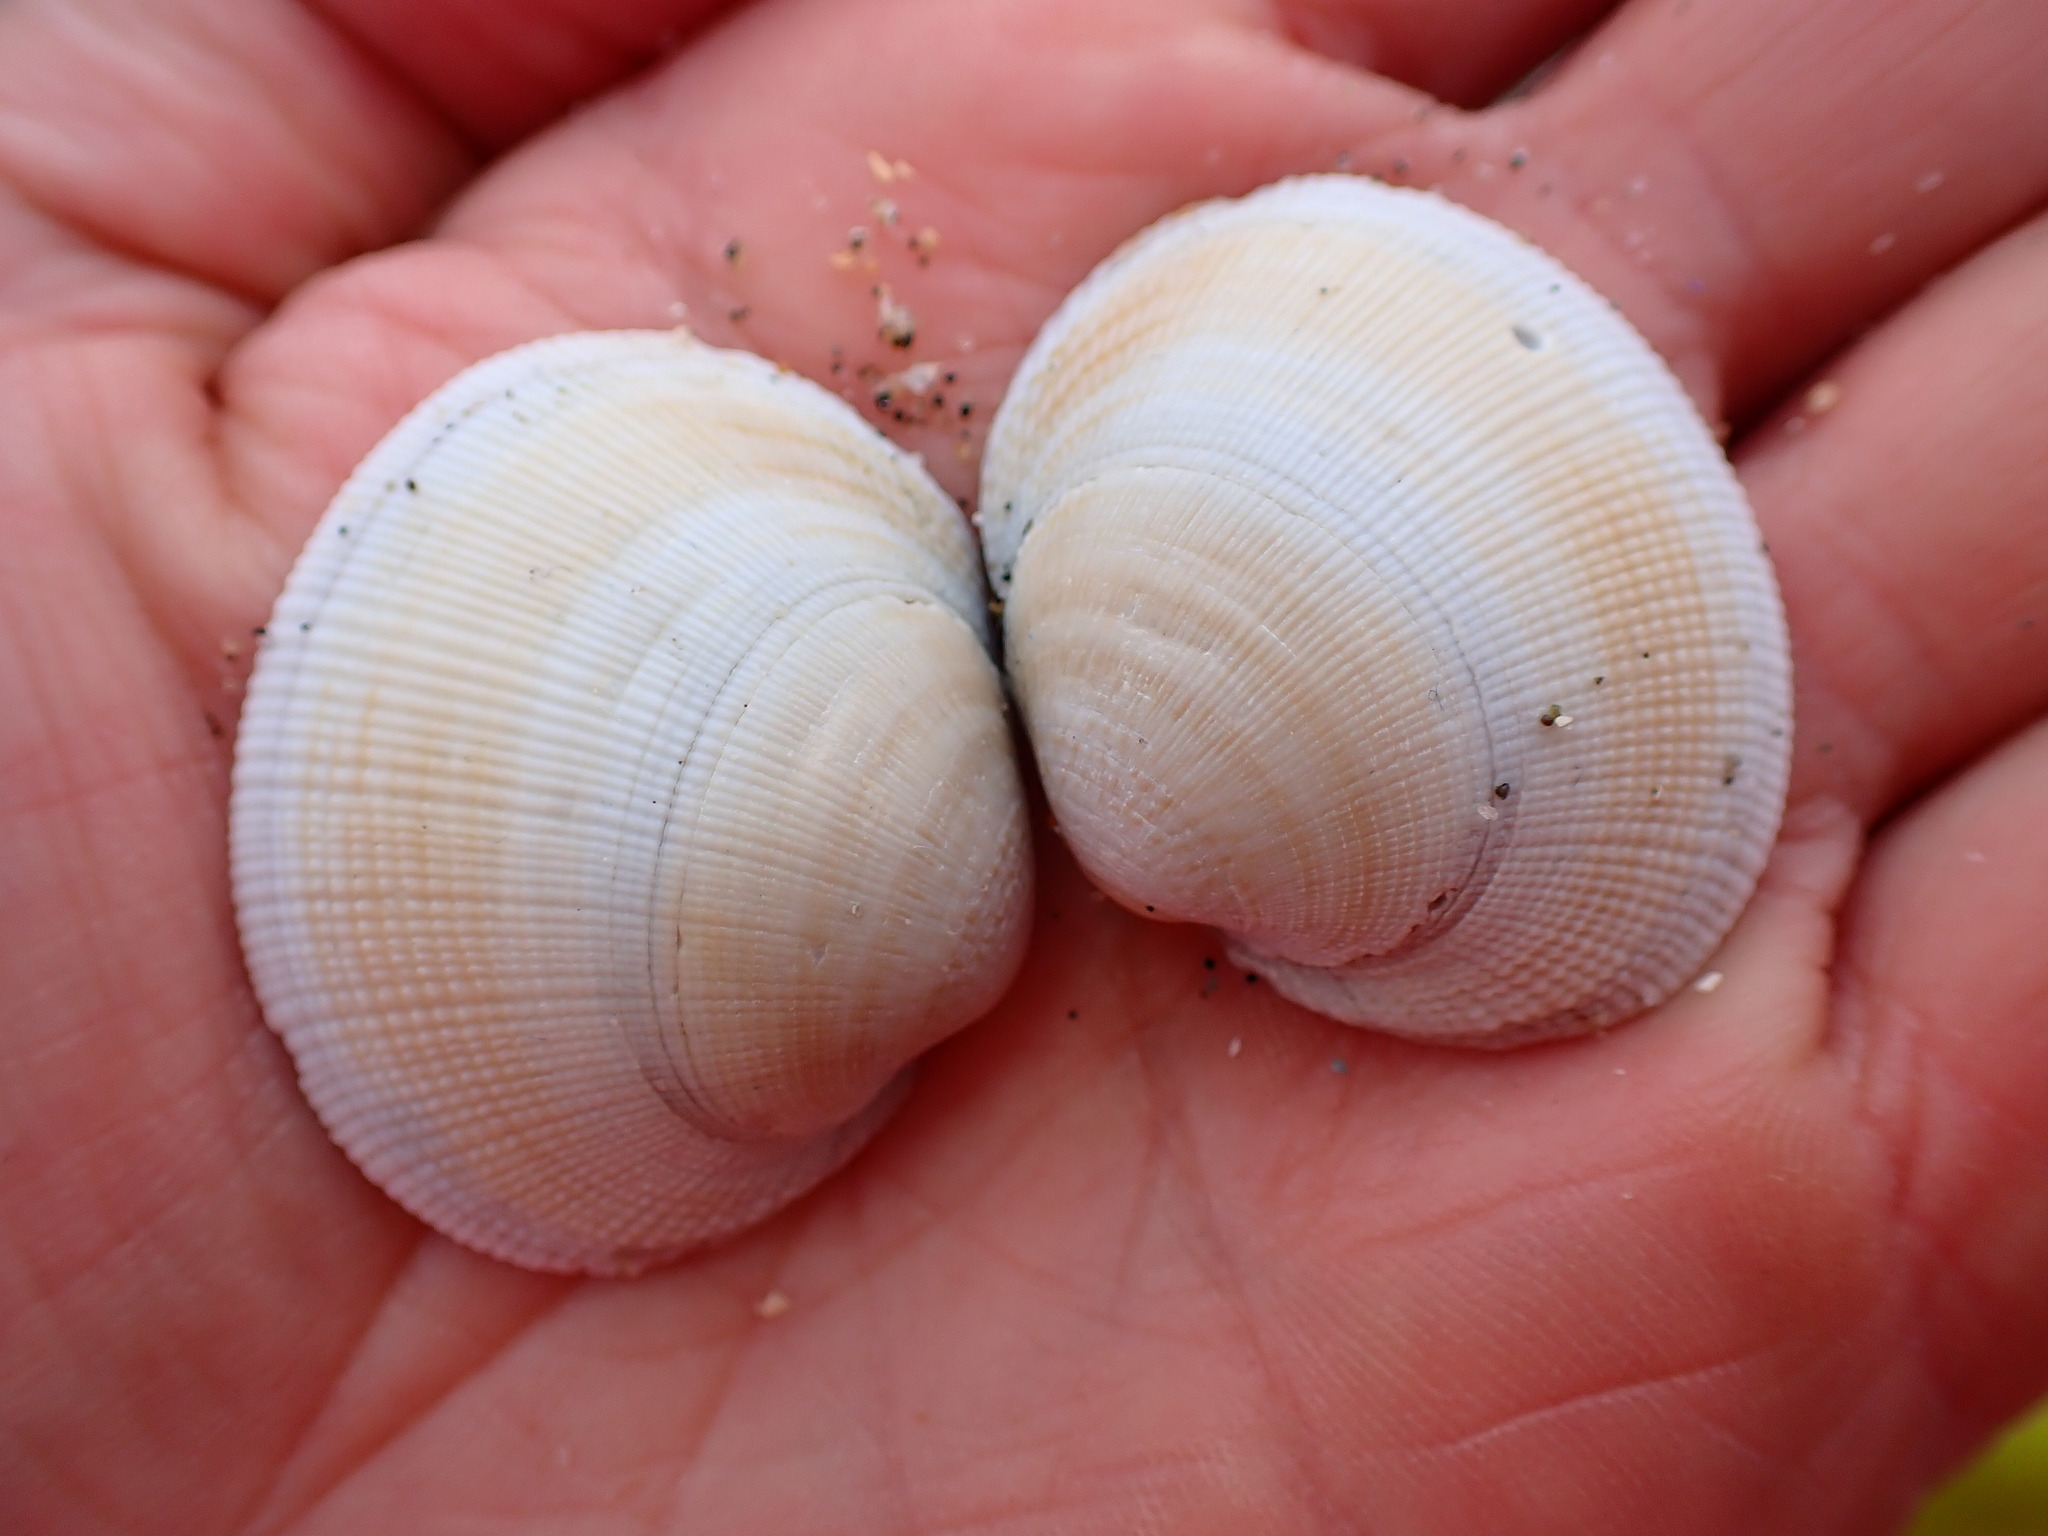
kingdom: Animalia
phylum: Mollusca
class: Bivalvia
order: Venerida
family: Veneridae
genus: Leukoma
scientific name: Leukoma staminea
